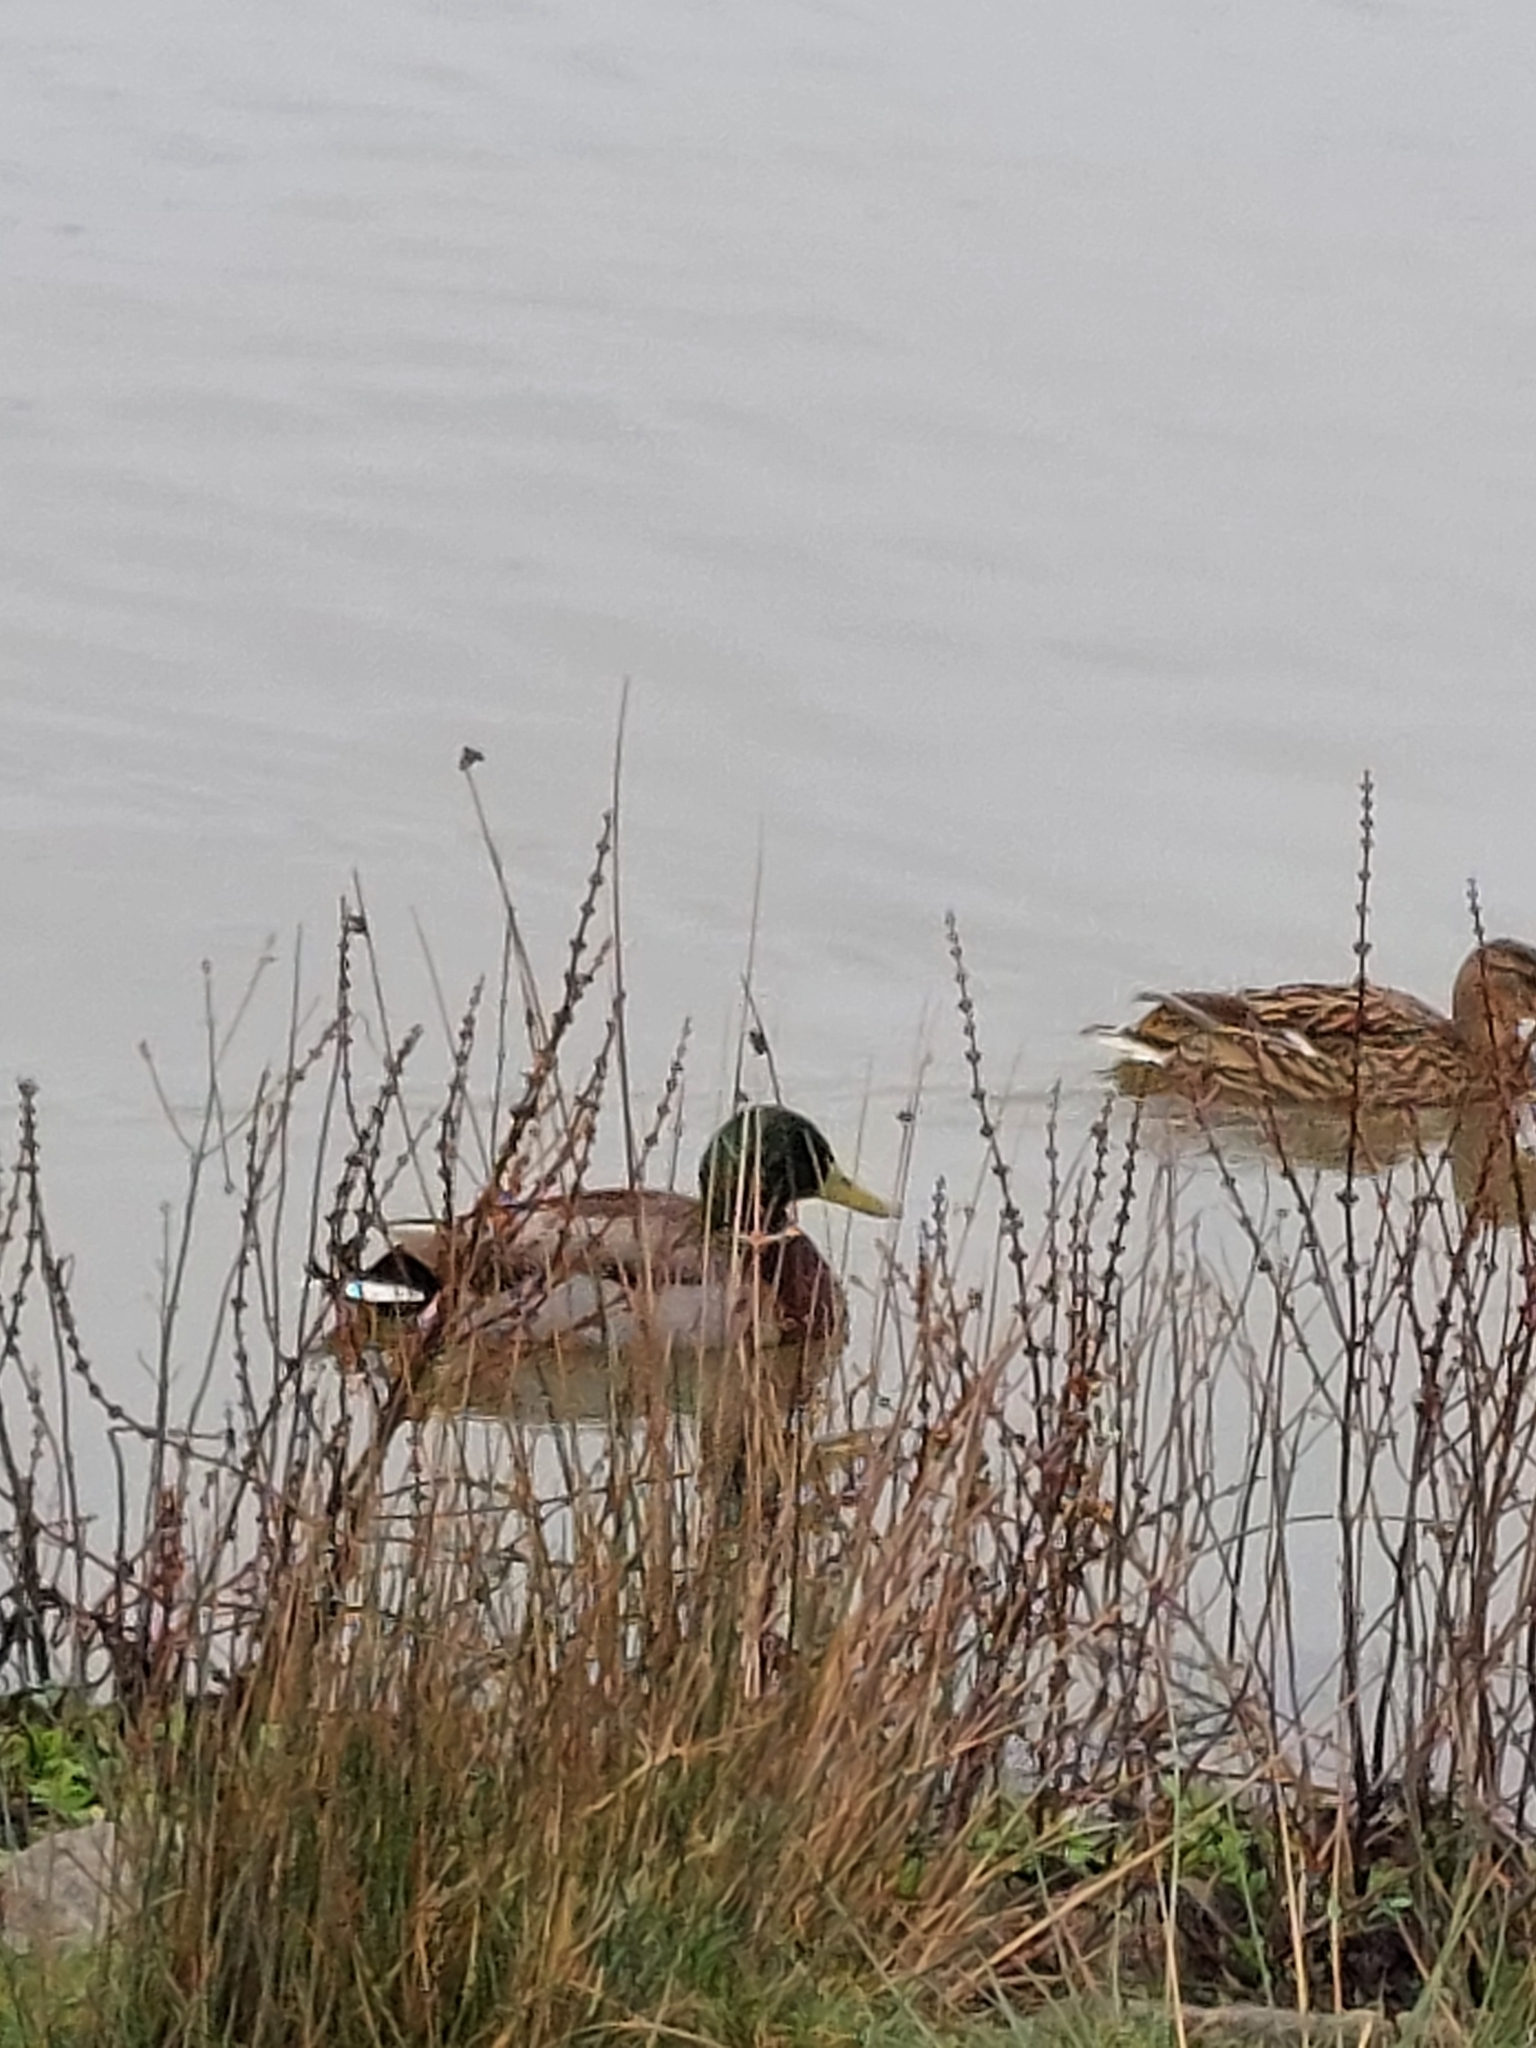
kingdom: Animalia
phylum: Chordata
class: Aves
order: Anseriformes
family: Anatidae
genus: Anas
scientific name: Anas platyrhynchos
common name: Mallard
